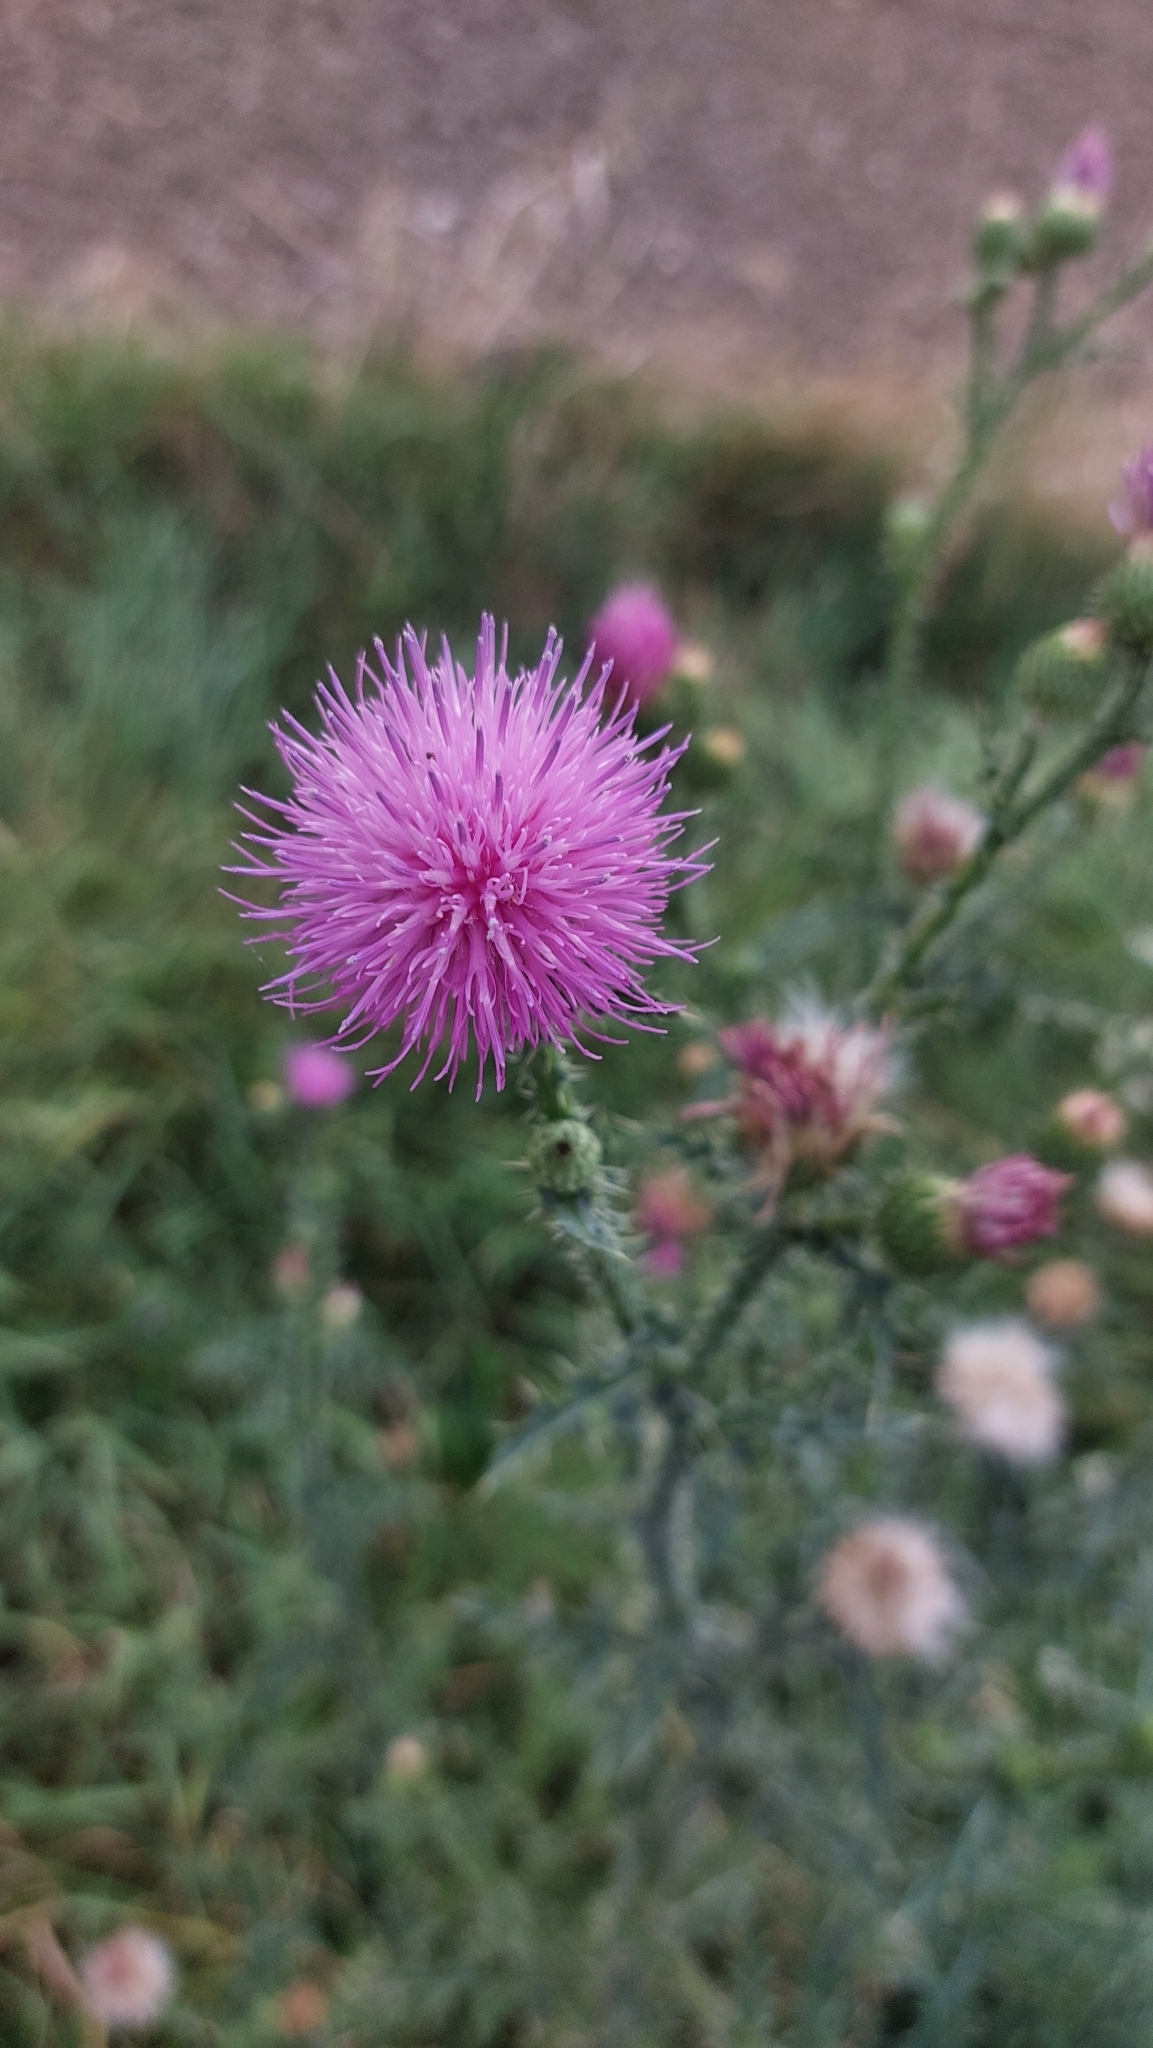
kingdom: Plantae
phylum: Tracheophyta
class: Magnoliopsida
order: Asterales
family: Asteraceae
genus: Carduus
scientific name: Carduus acanthoides
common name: Plumeless thistle
